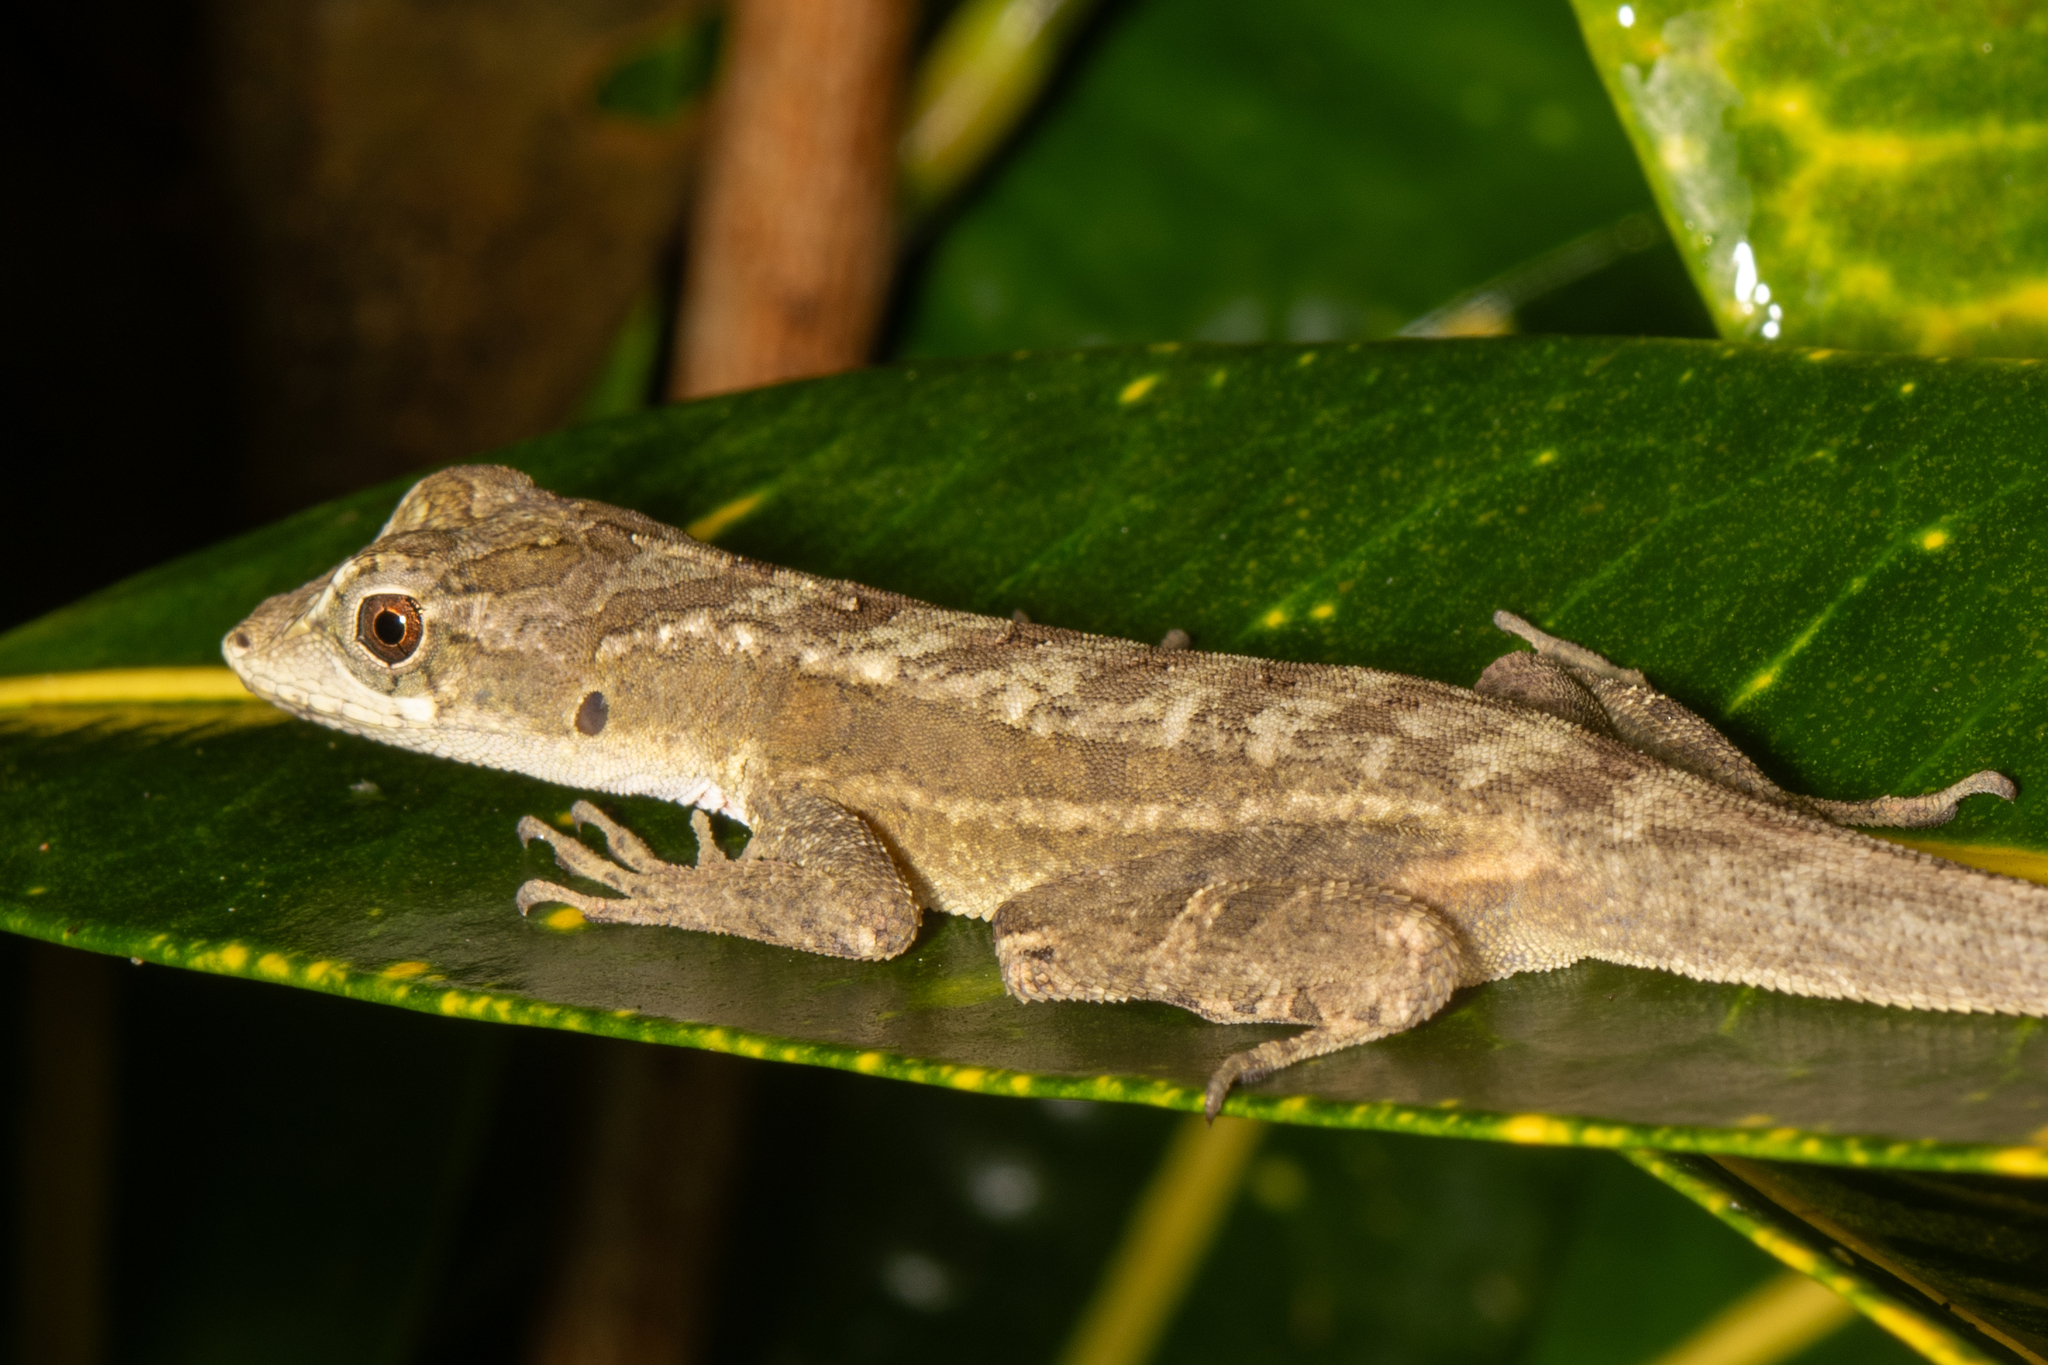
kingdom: Animalia
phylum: Chordata
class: Squamata
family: Dactyloidae
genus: Anolis
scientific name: Anolis tropidonotus
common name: Greater scaly anole
